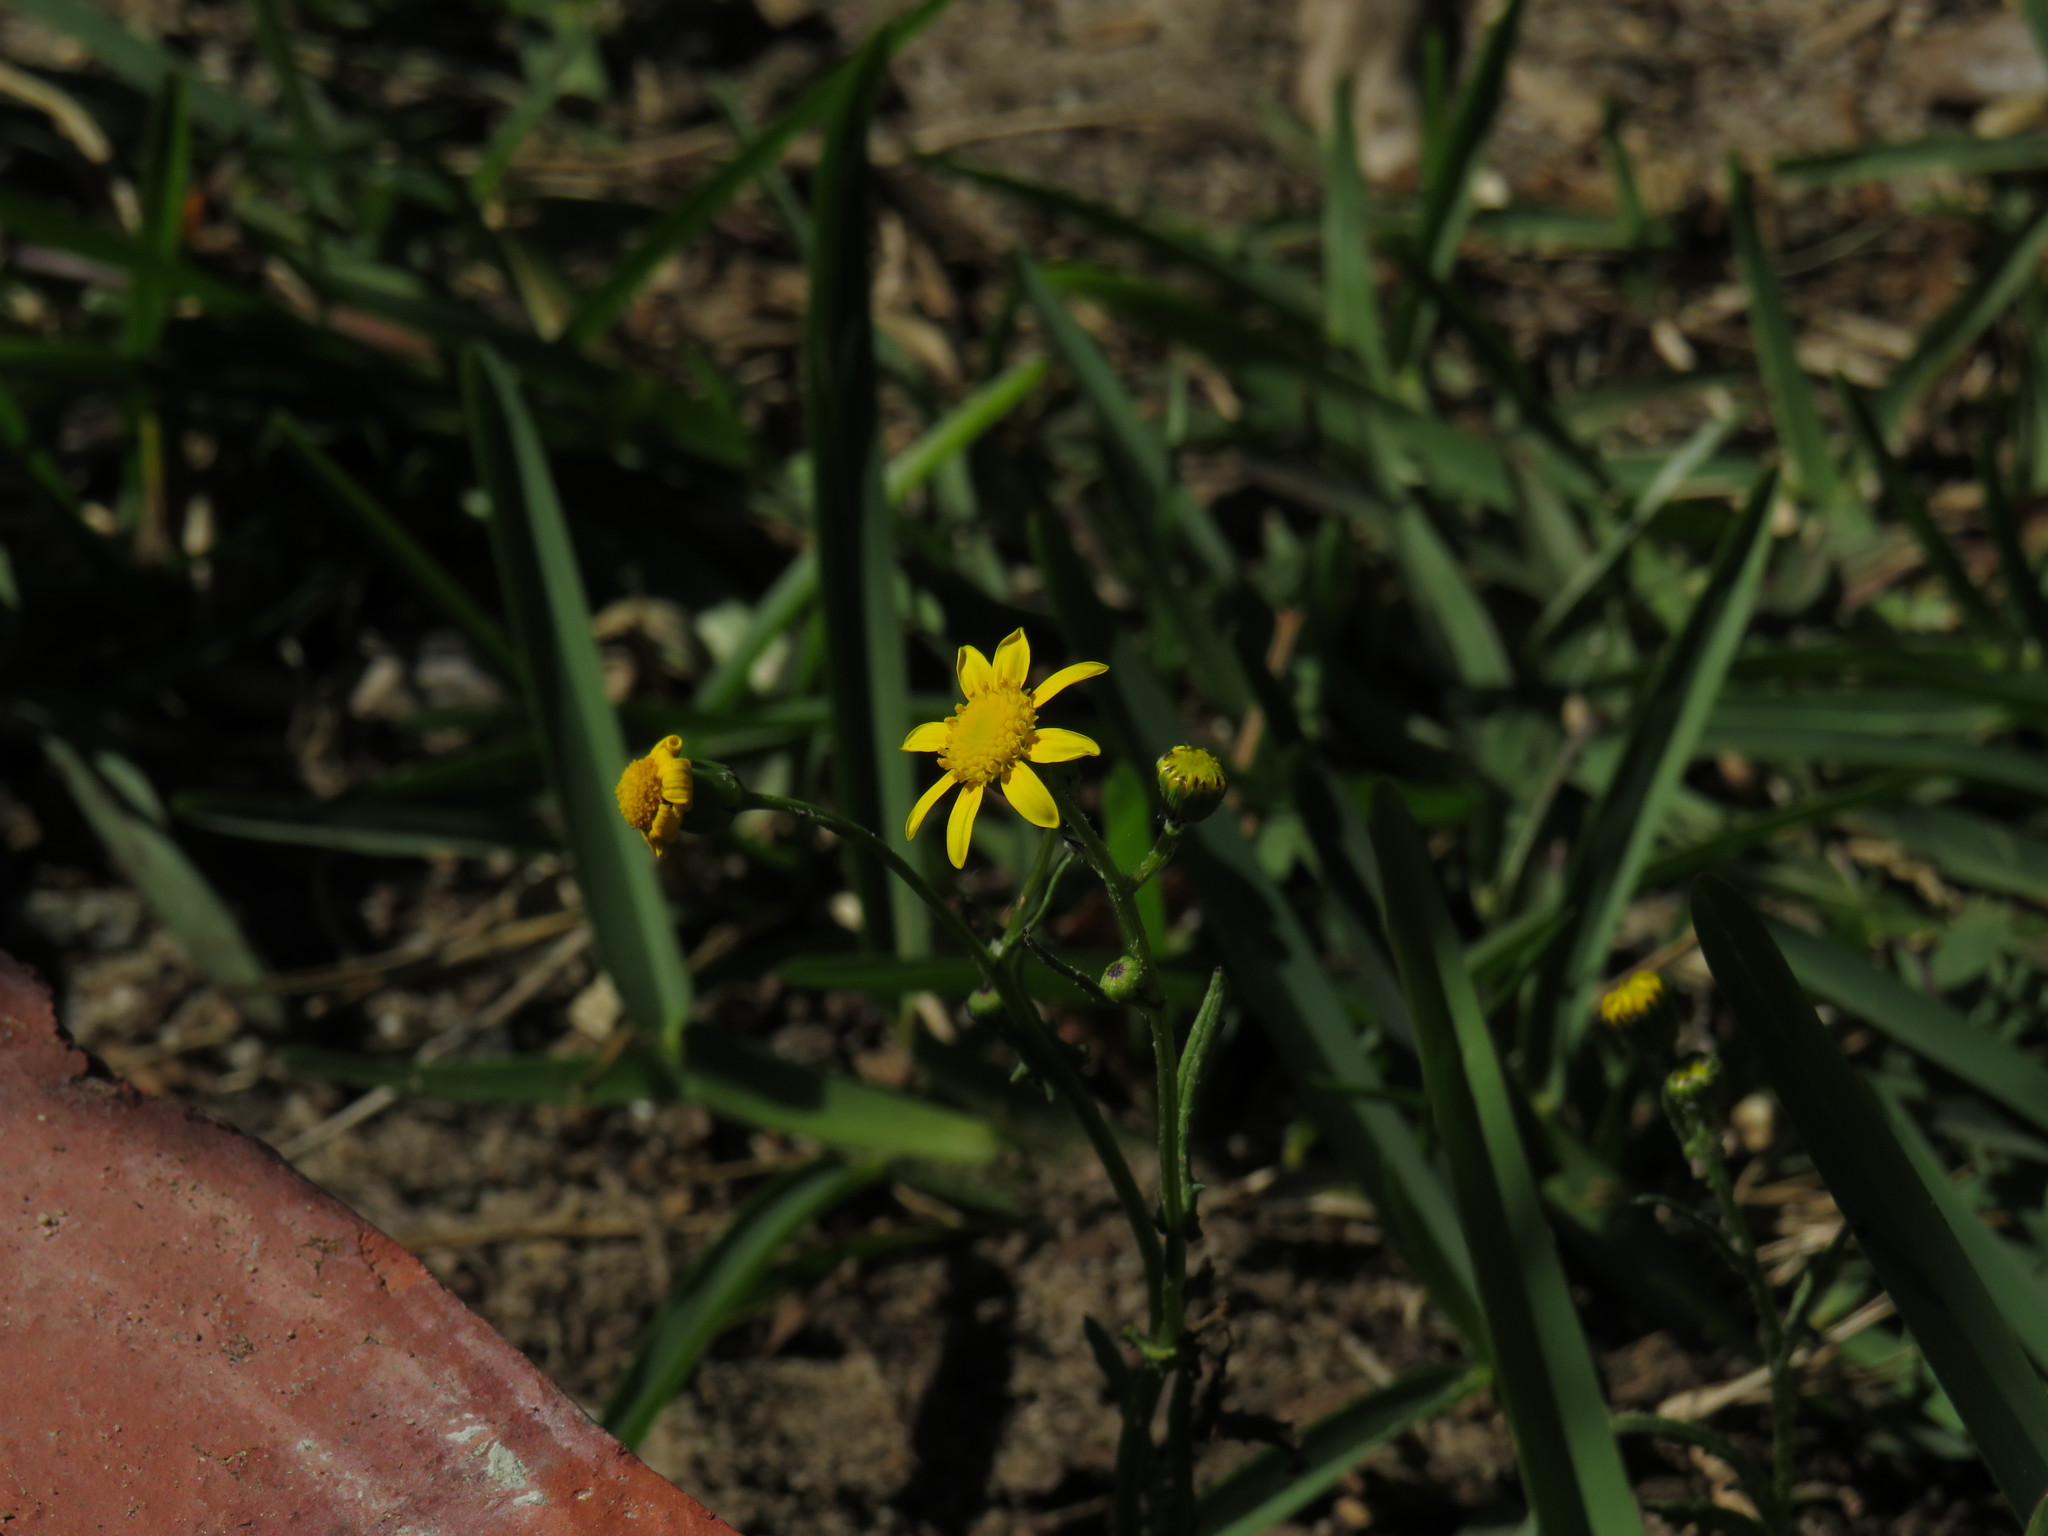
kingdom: Plantae
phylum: Tracheophyta
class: Magnoliopsida
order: Asterales
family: Asteraceae
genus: Senecio
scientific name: Senecio littoreus
